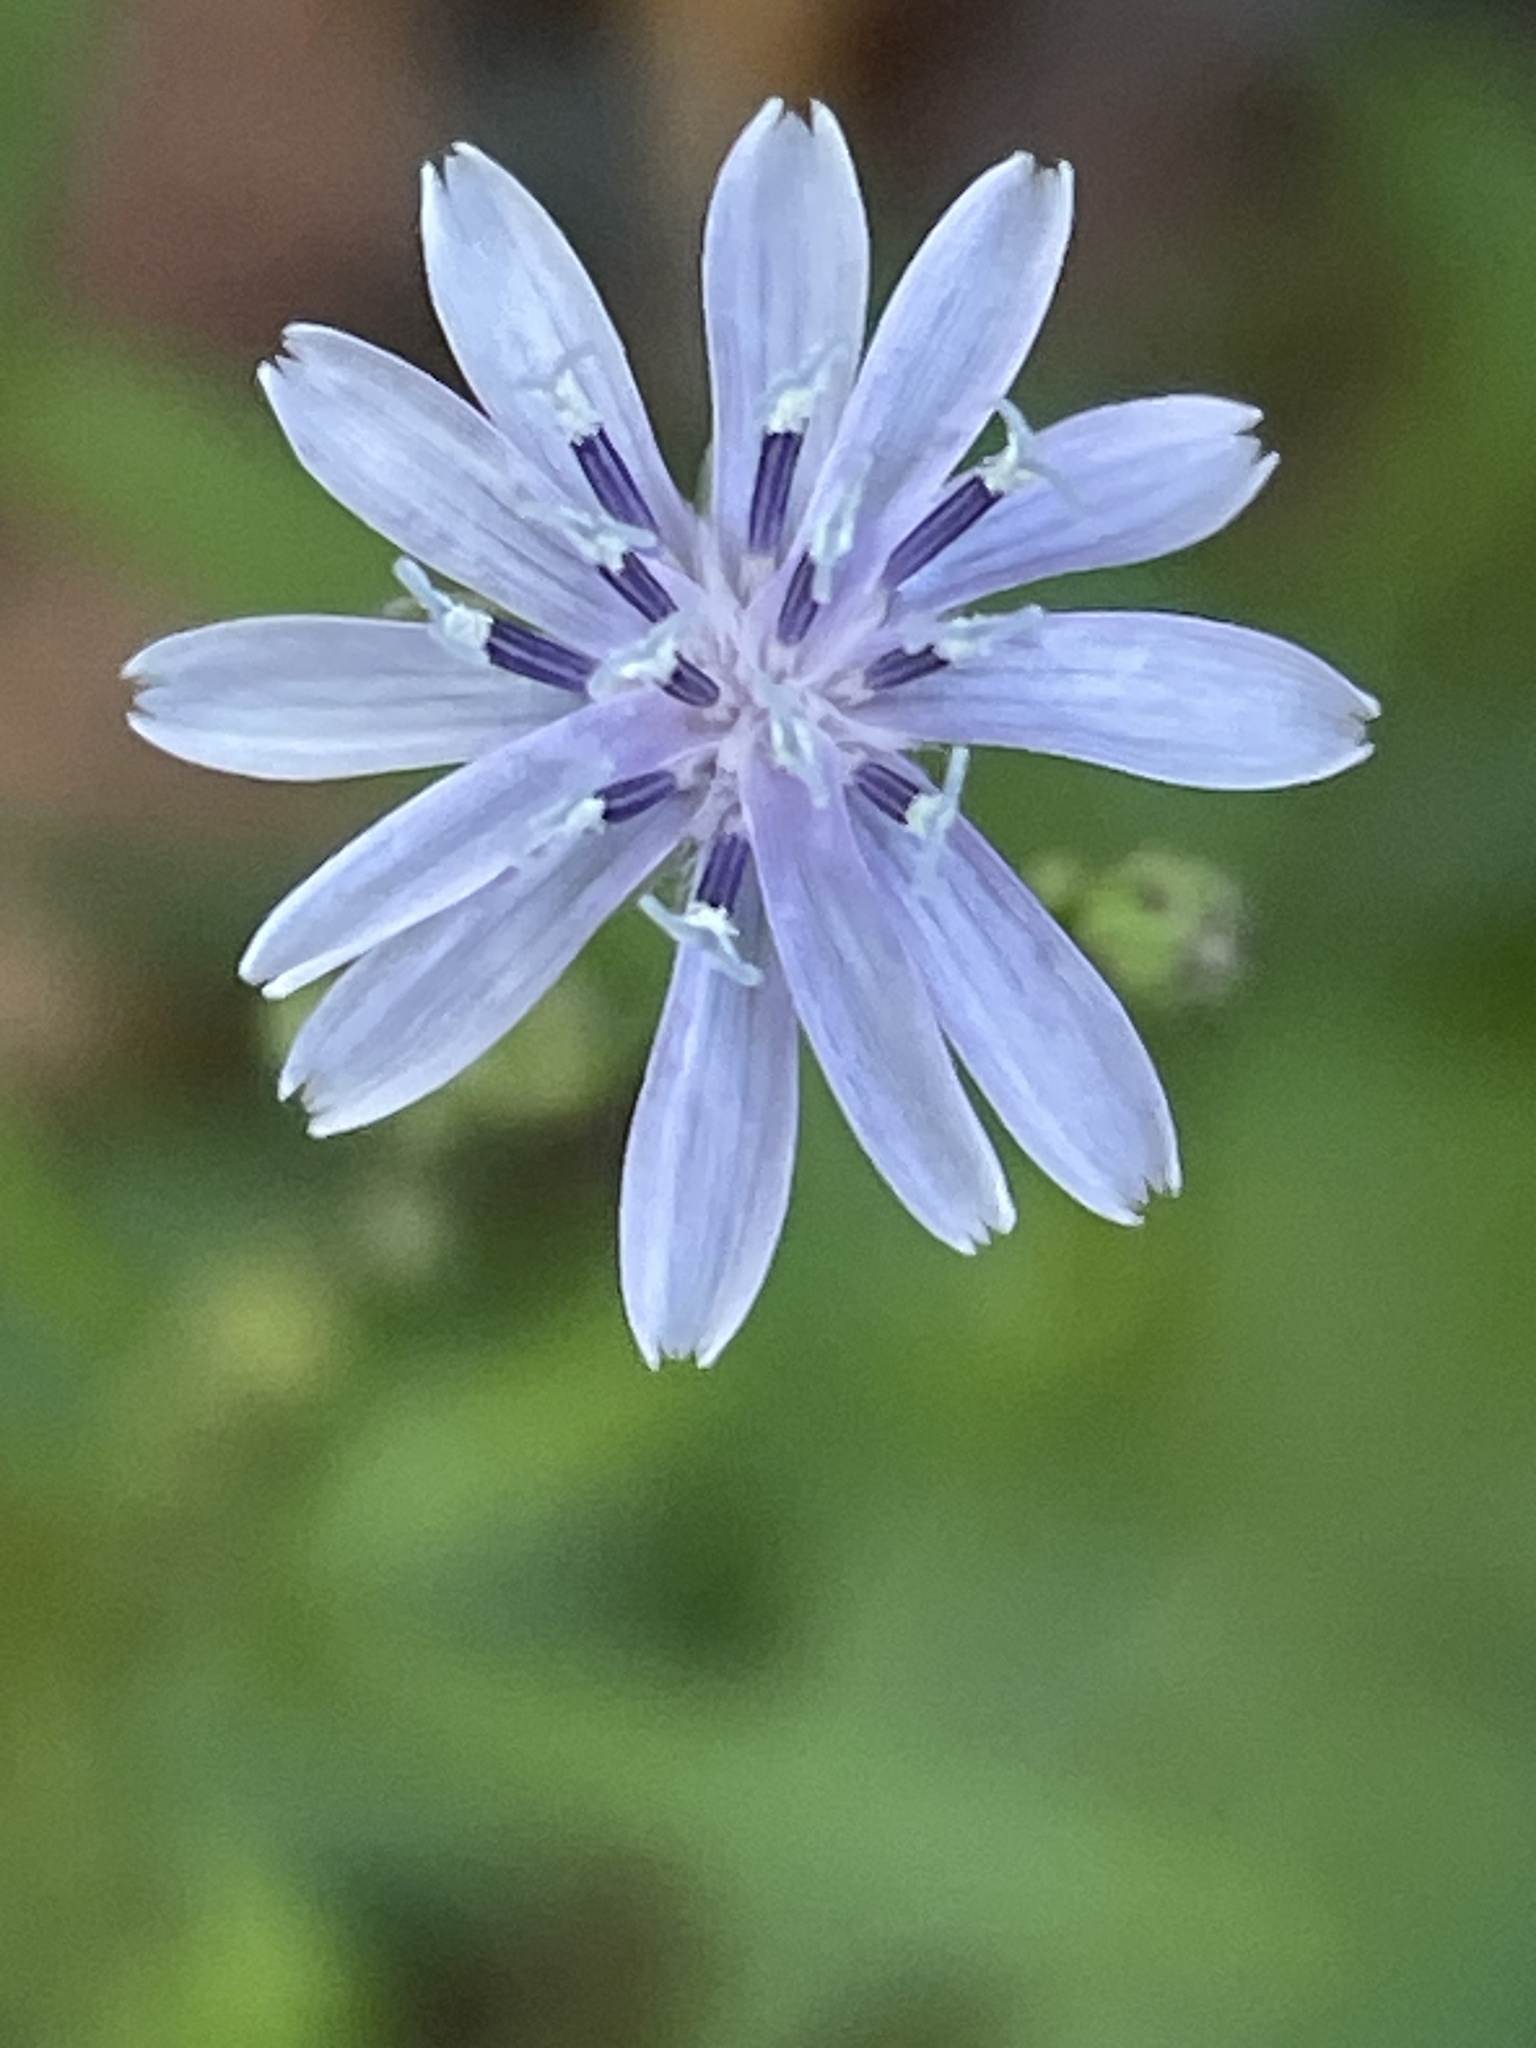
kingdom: Plantae
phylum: Tracheophyta
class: Magnoliopsida
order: Asterales
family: Asteraceae
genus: Lactuca
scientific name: Lactuca floridana
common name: Woodland lettuce
